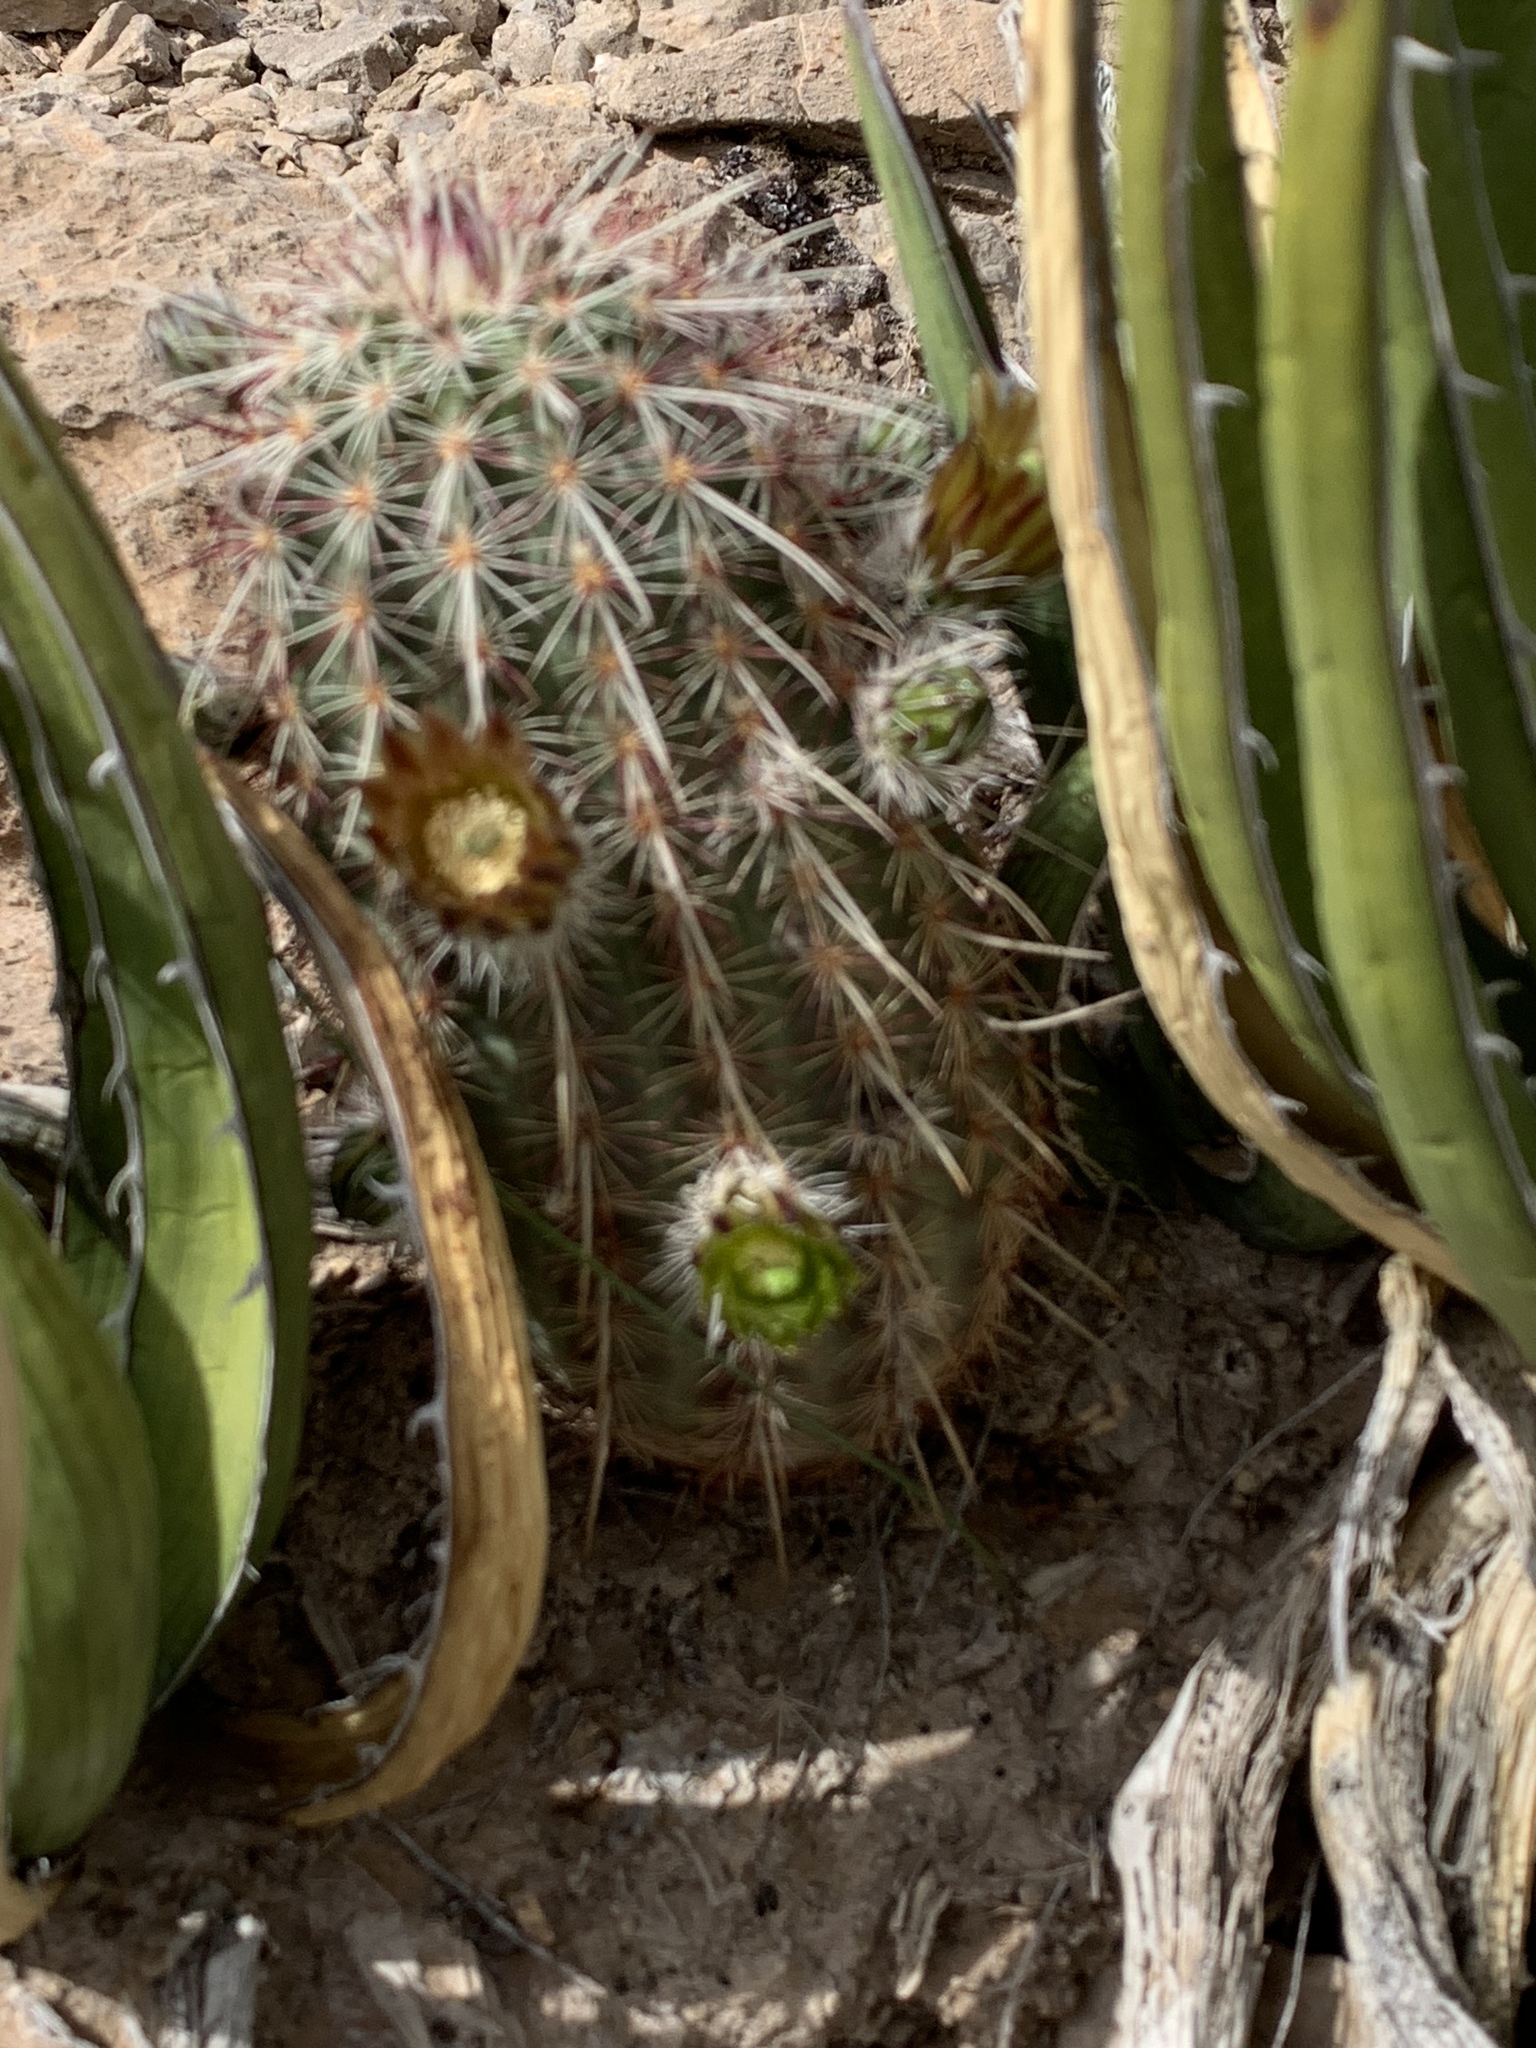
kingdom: Plantae
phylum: Tracheophyta
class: Magnoliopsida
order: Caryophyllales
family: Cactaceae
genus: Echinocereus
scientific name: Echinocereus viridiflorus
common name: Nylon hedgehog cactus
